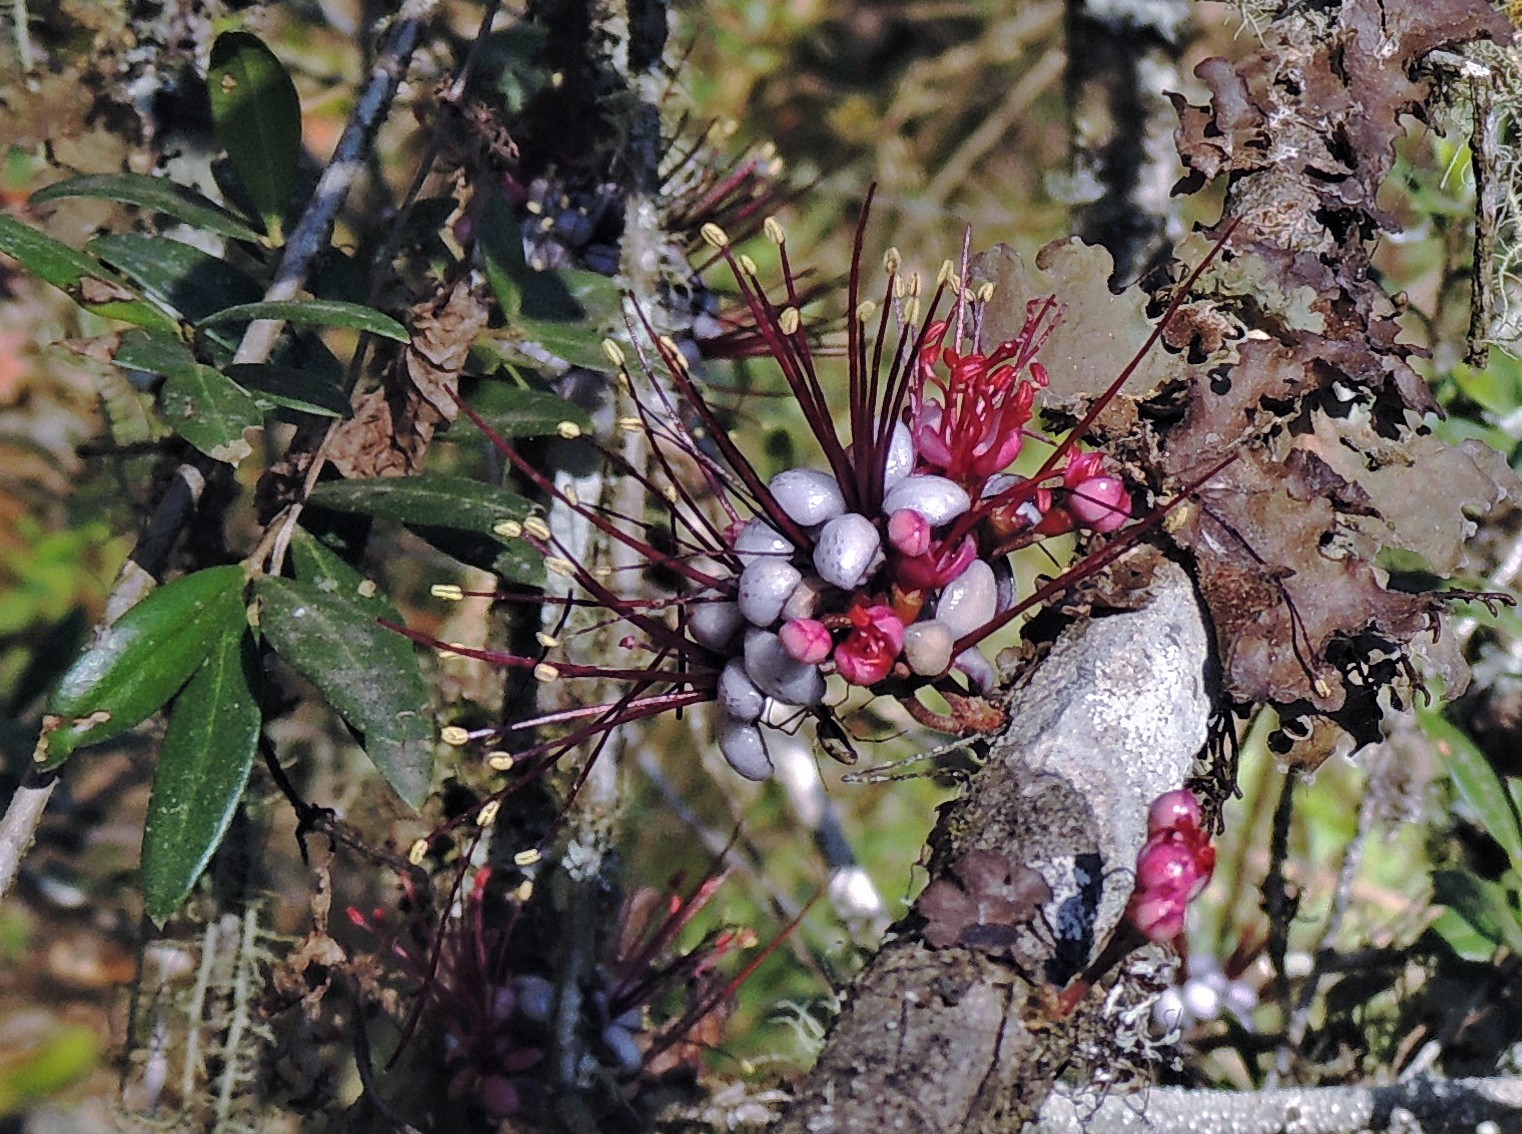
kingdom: Plantae
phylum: Tracheophyta
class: Magnoliopsida
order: Myrtales
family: Myrtaceae
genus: Myrrhinium
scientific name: Myrrhinium atropurpureum
